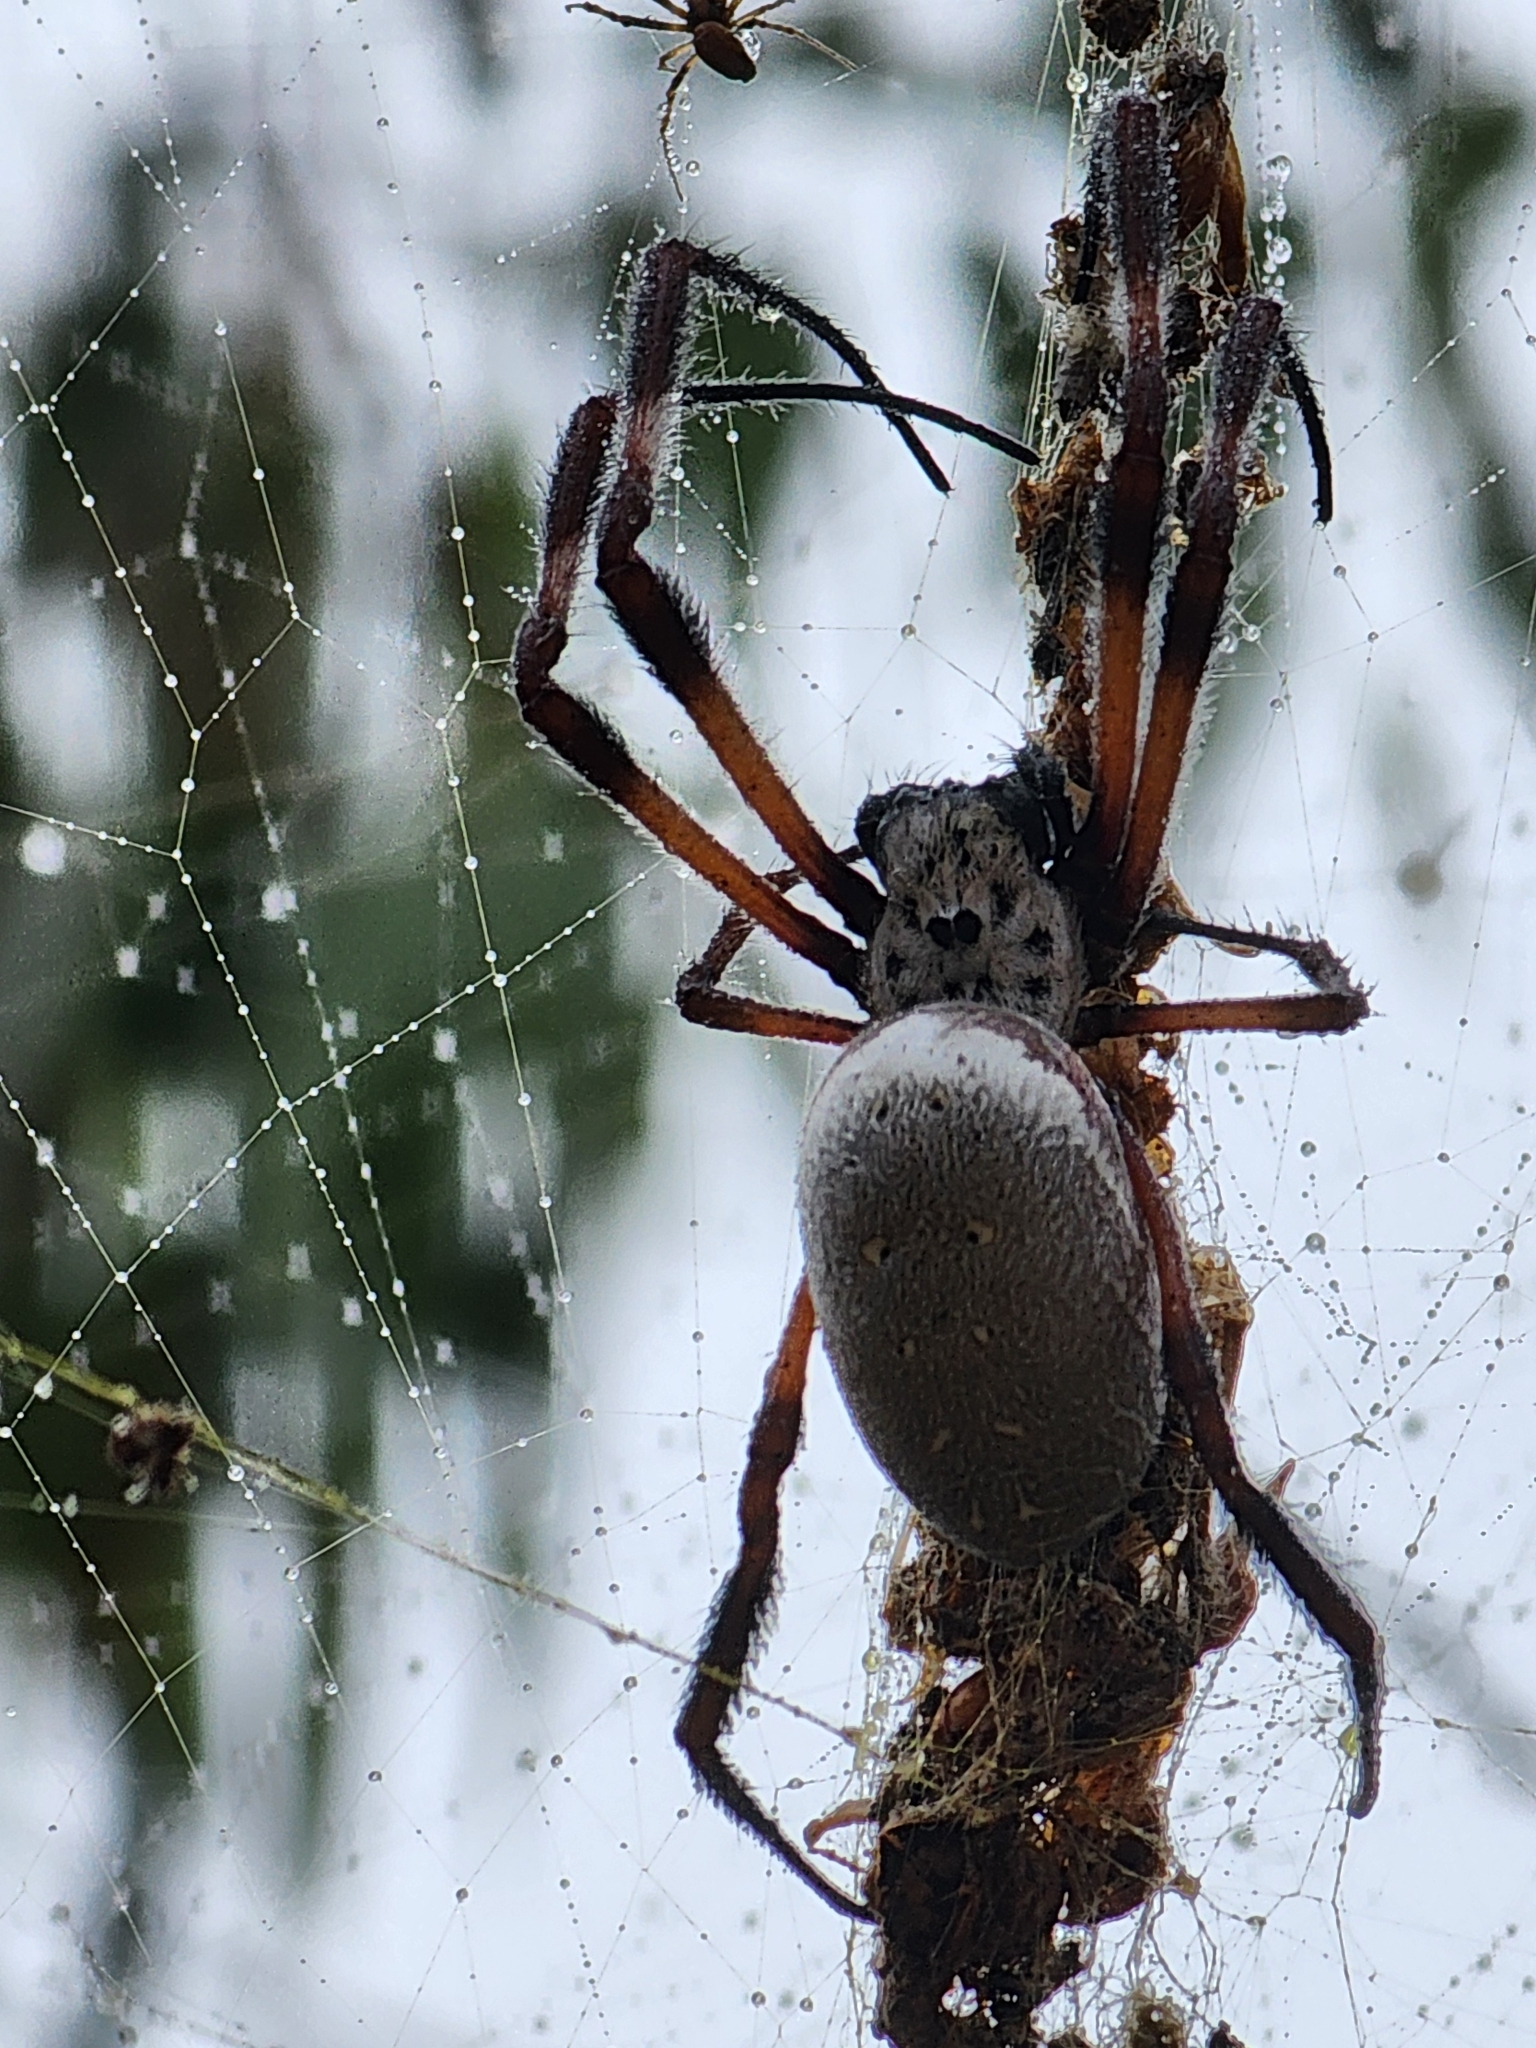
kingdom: Animalia
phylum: Arthropoda
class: Arachnida
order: Araneae
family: Araneidae
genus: Trichonephila
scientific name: Trichonephila edulis
